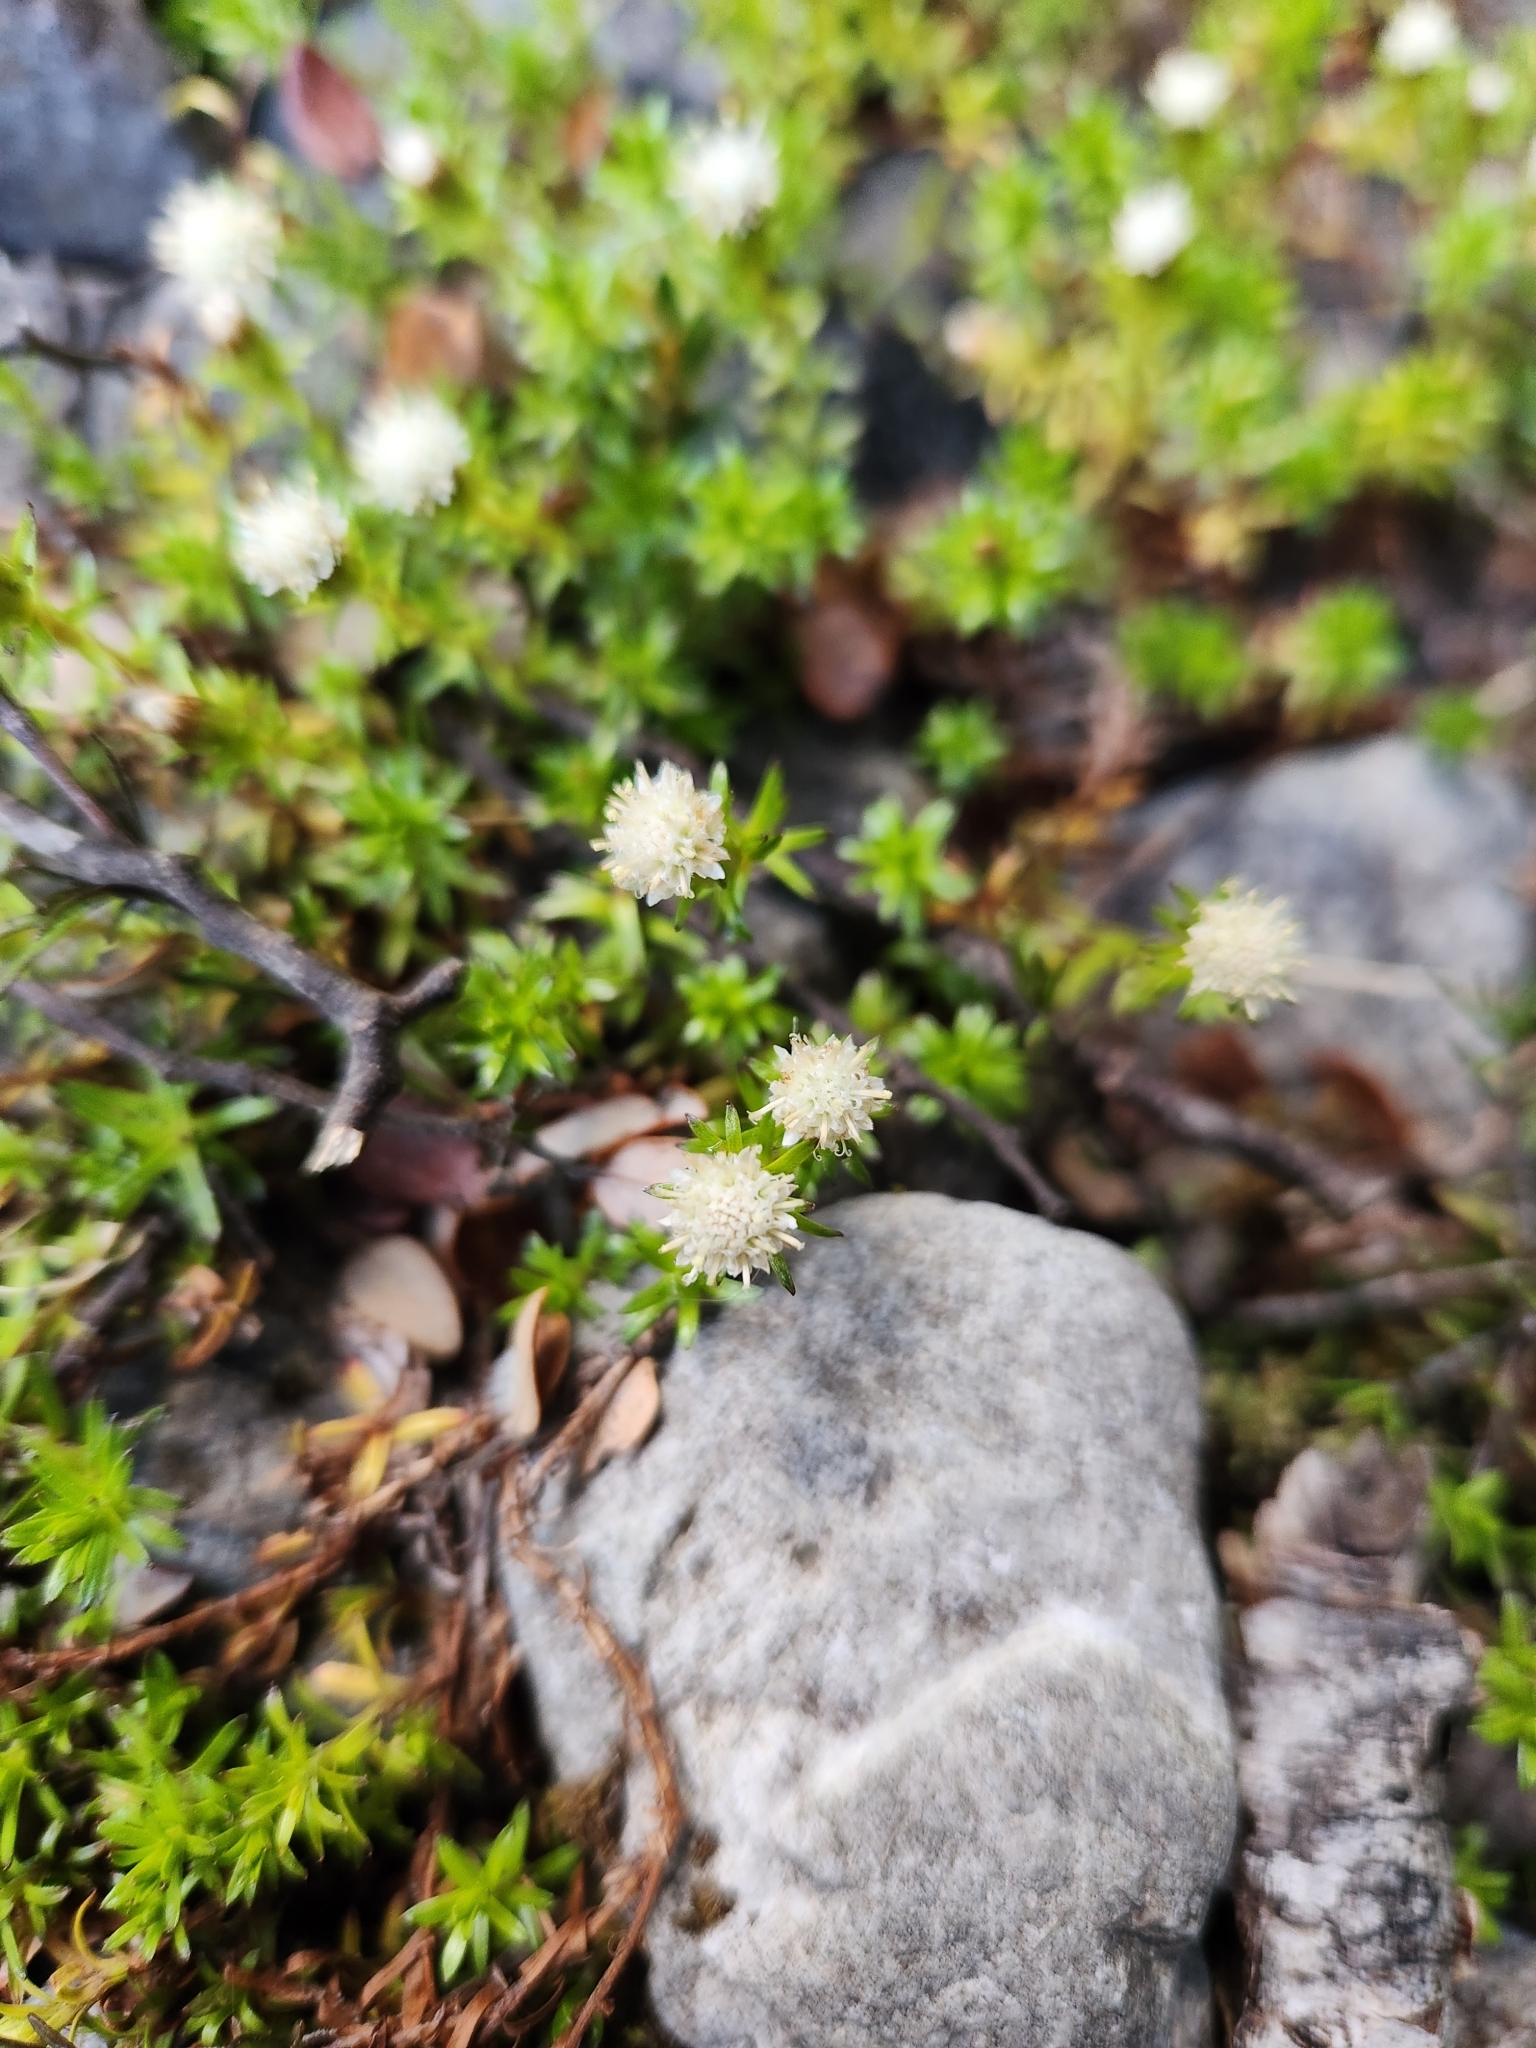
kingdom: Plantae
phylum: Tracheophyta
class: Magnoliopsida
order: Asterales
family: Asteraceae
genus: Raoulia
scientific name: Raoulia glabra
